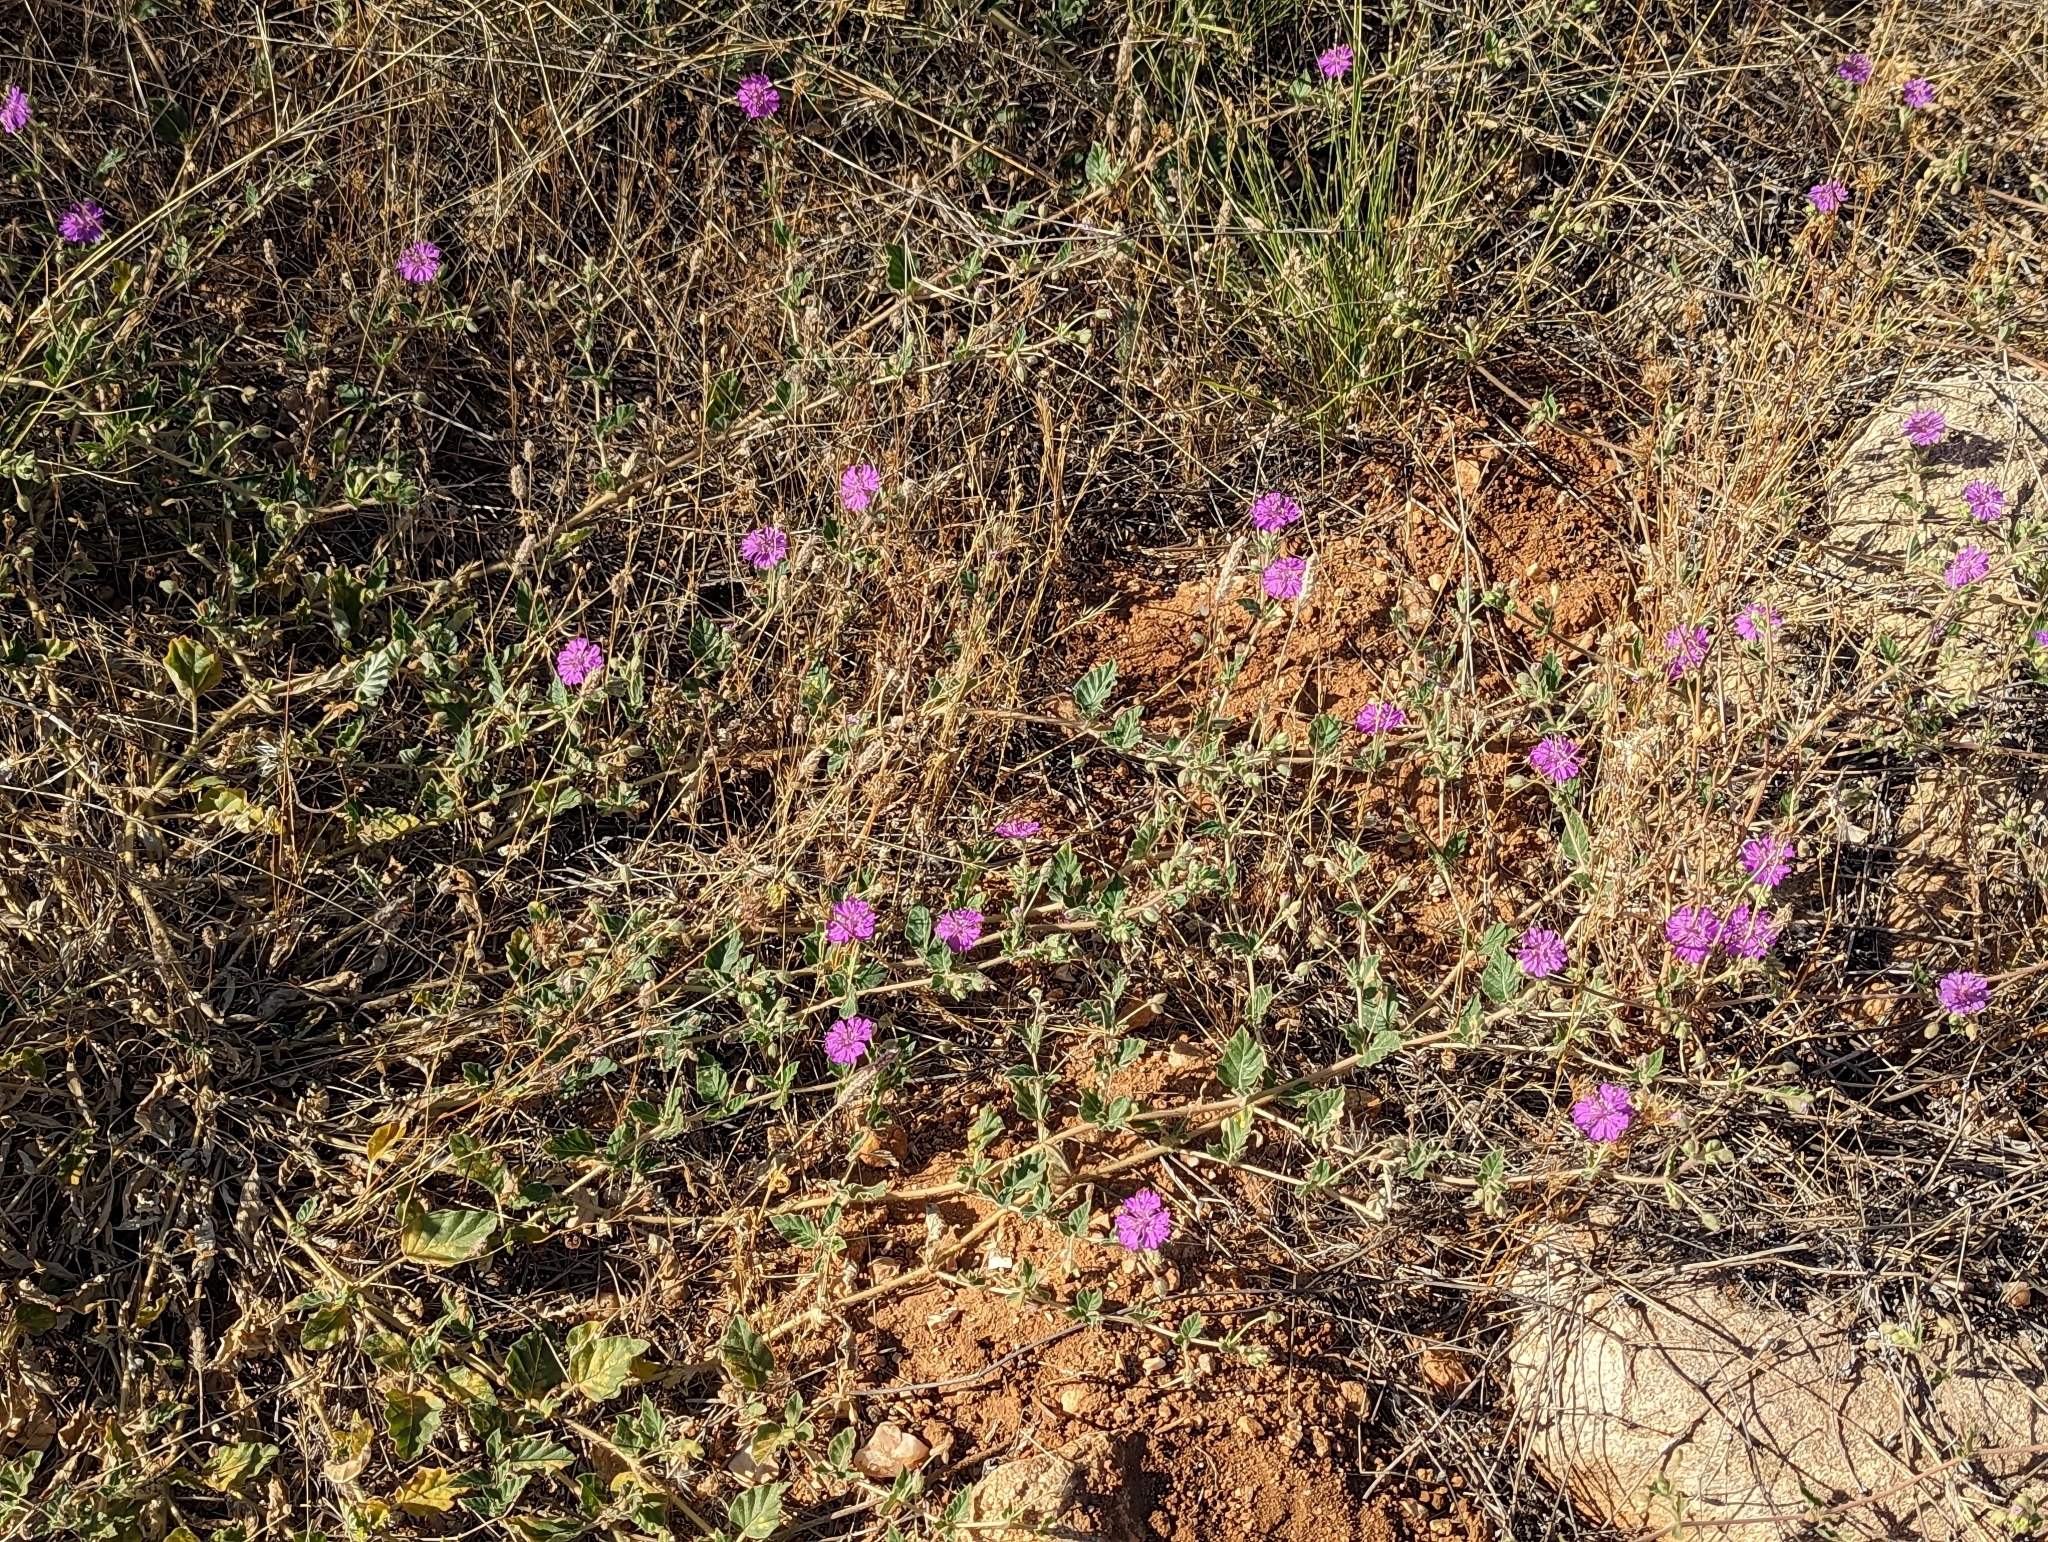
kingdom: Plantae
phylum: Tracheophyta
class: Magnoliopsida
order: Caryophyllales
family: Nyctaginaceae
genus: Allionia
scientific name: Allionia incarnata
